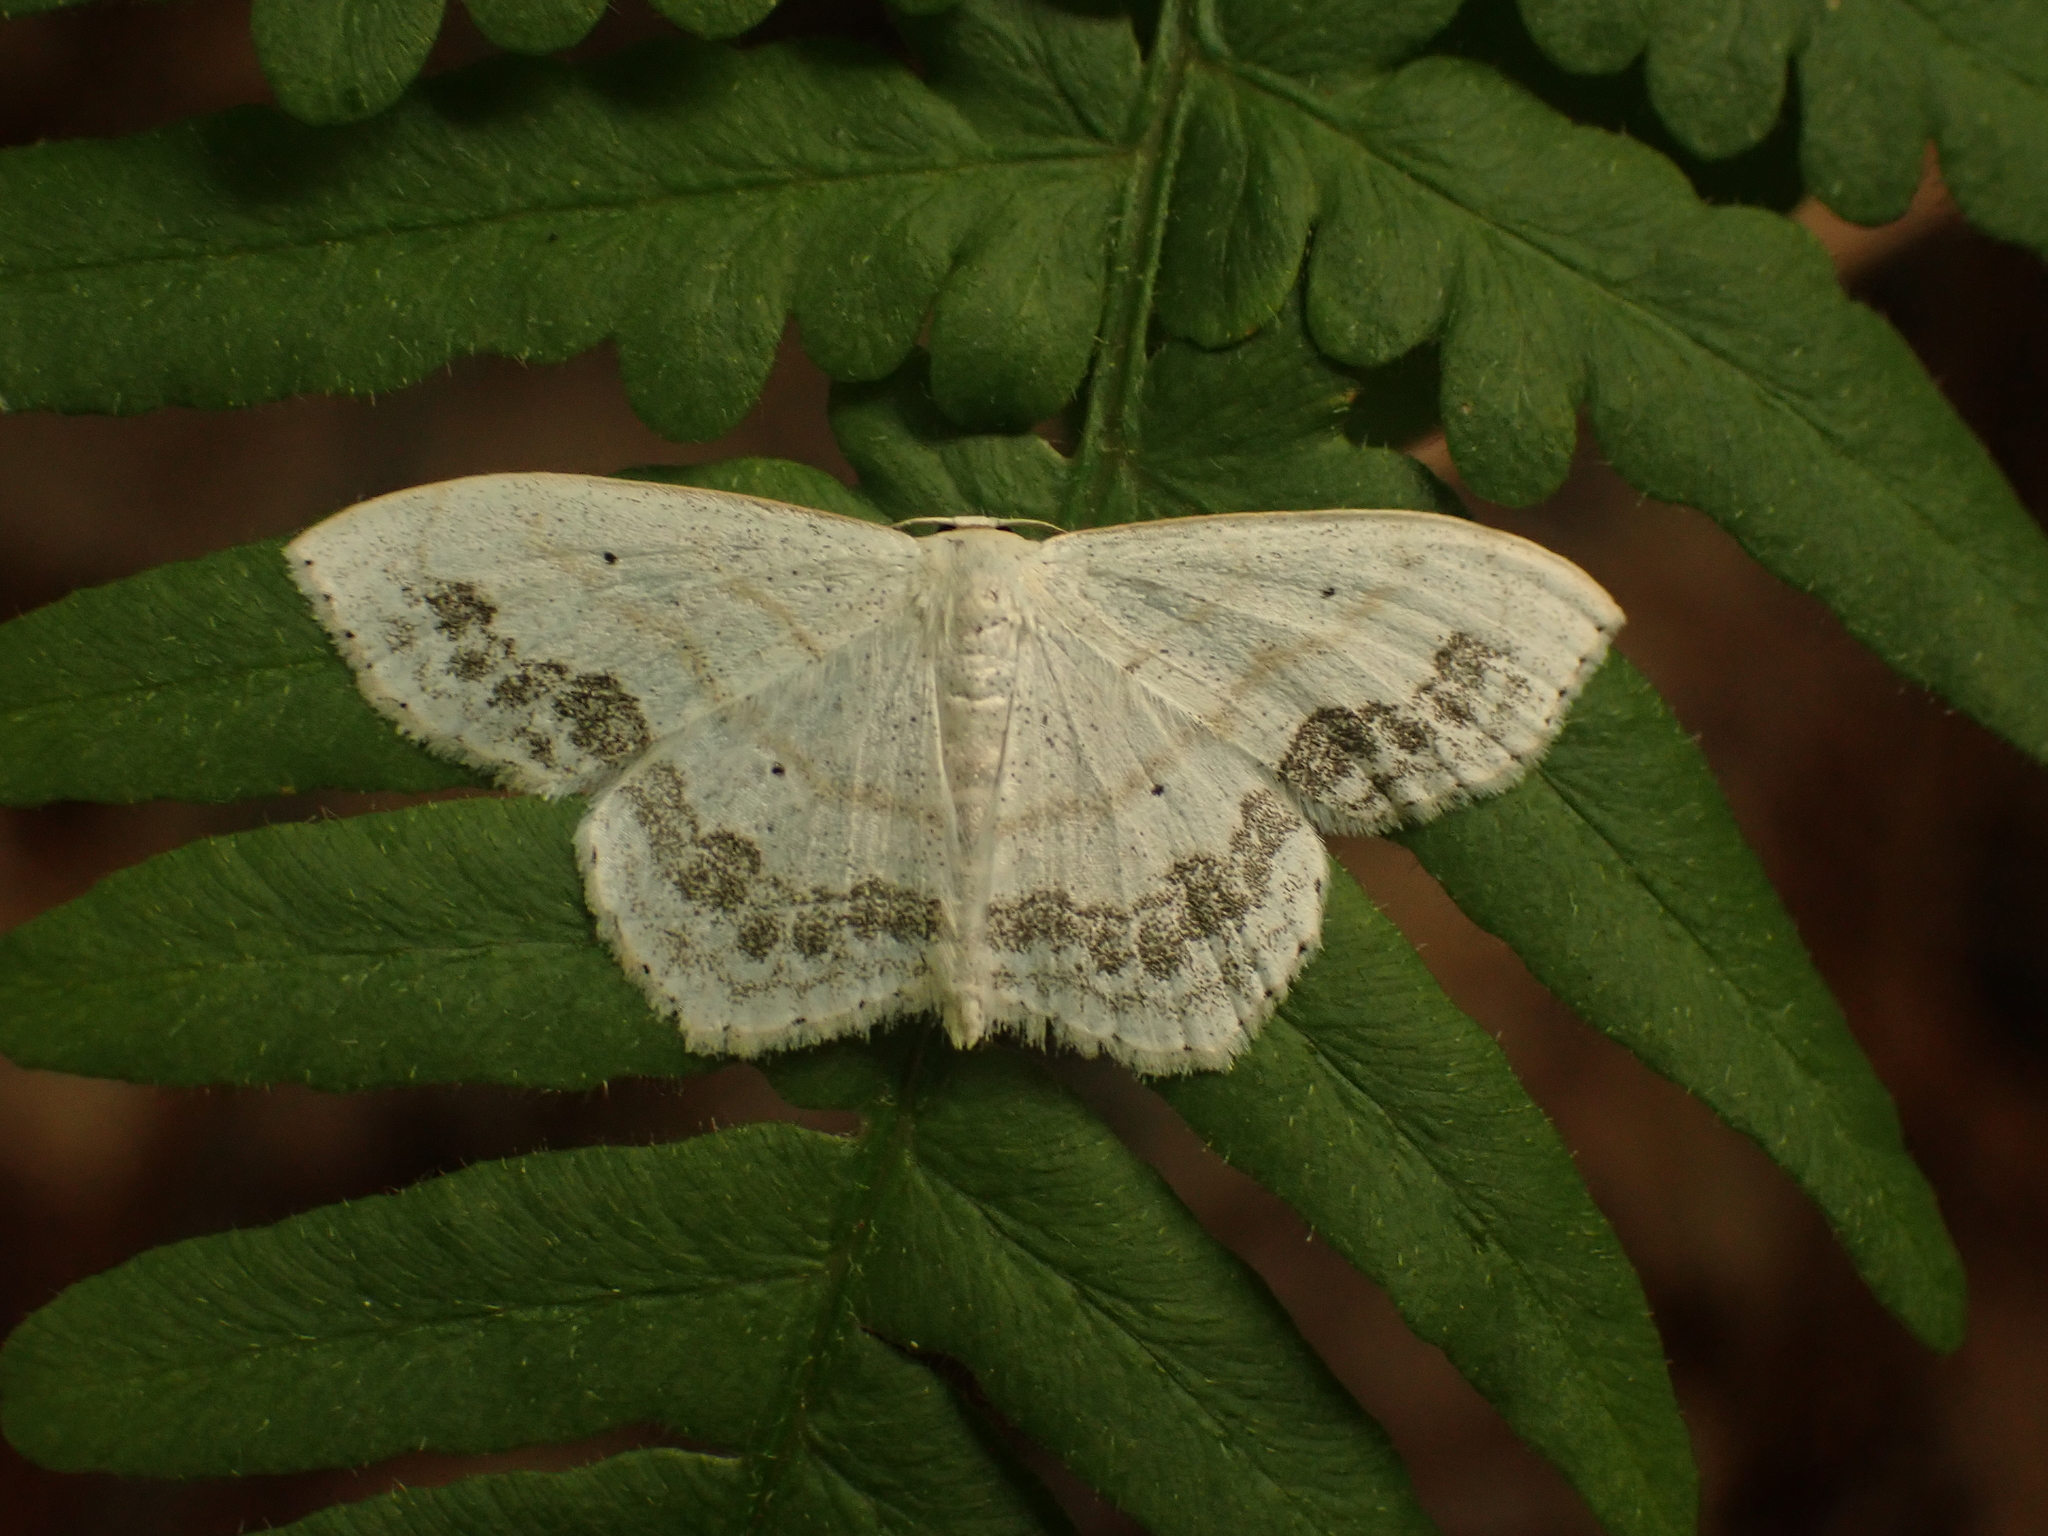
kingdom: Animalia
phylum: Arthropoda
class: Insecta
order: Lepidoptera
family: Geometridae
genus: Scopula
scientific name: Scopula limboundata
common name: Large lace border
